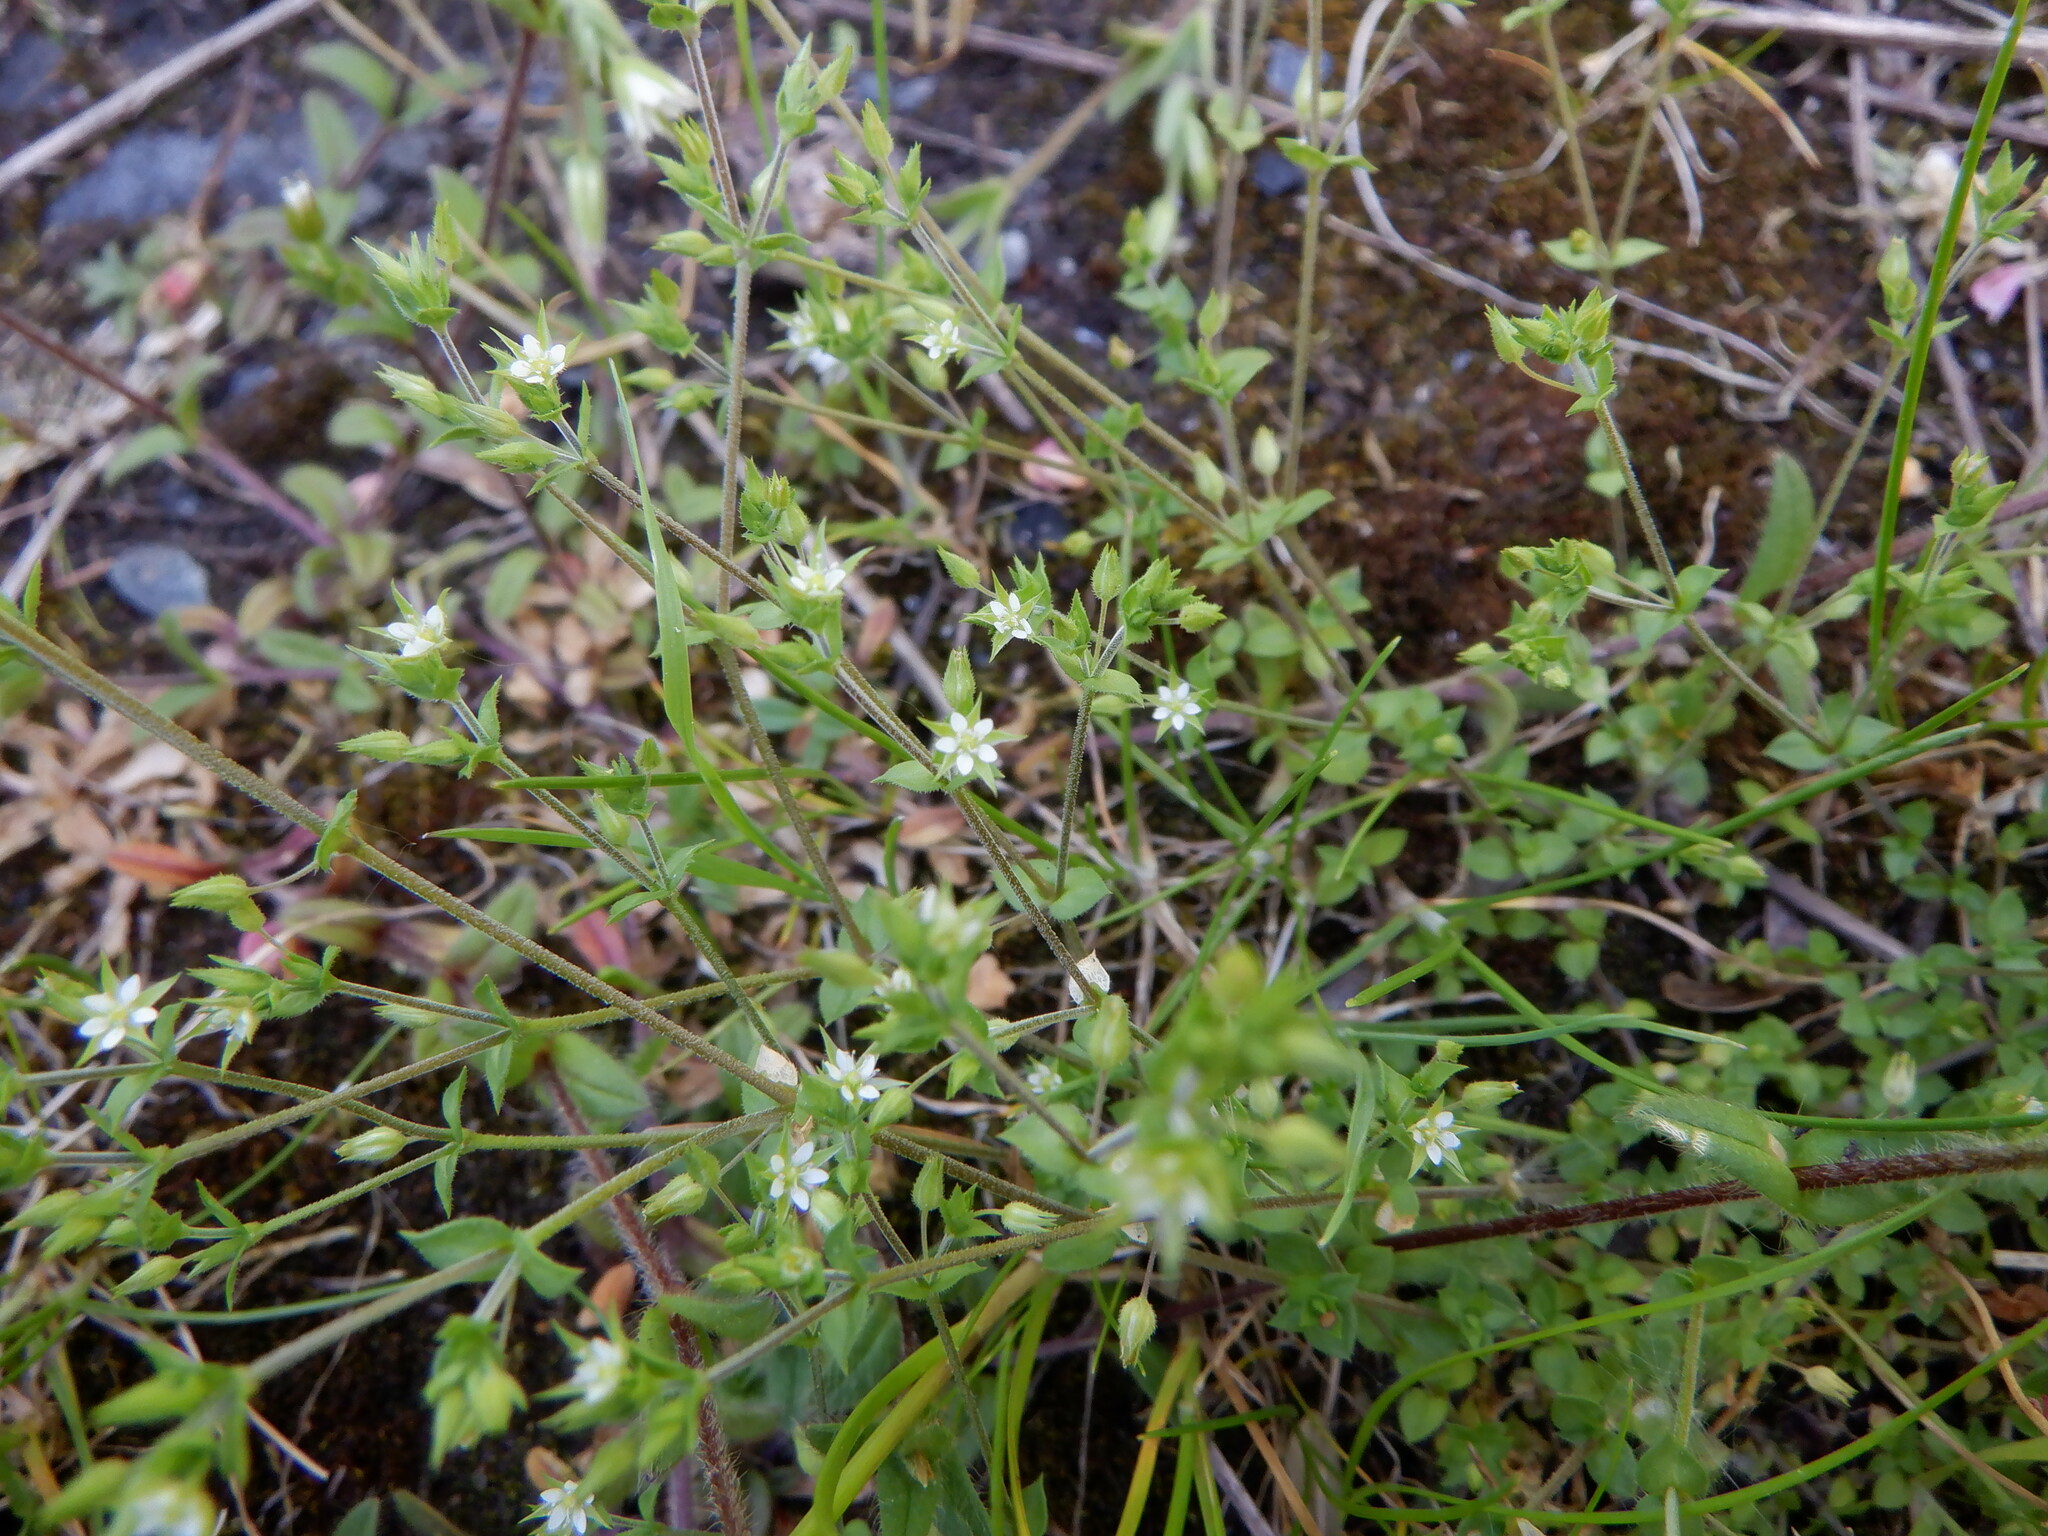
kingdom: Plantae
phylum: Tracheophyta
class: Magnoliopsida
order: Caryophyllales
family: Caryophyllaceae
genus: Arenaria
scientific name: Arenaria serpyllifolia
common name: Thyme-leaved sandwort
